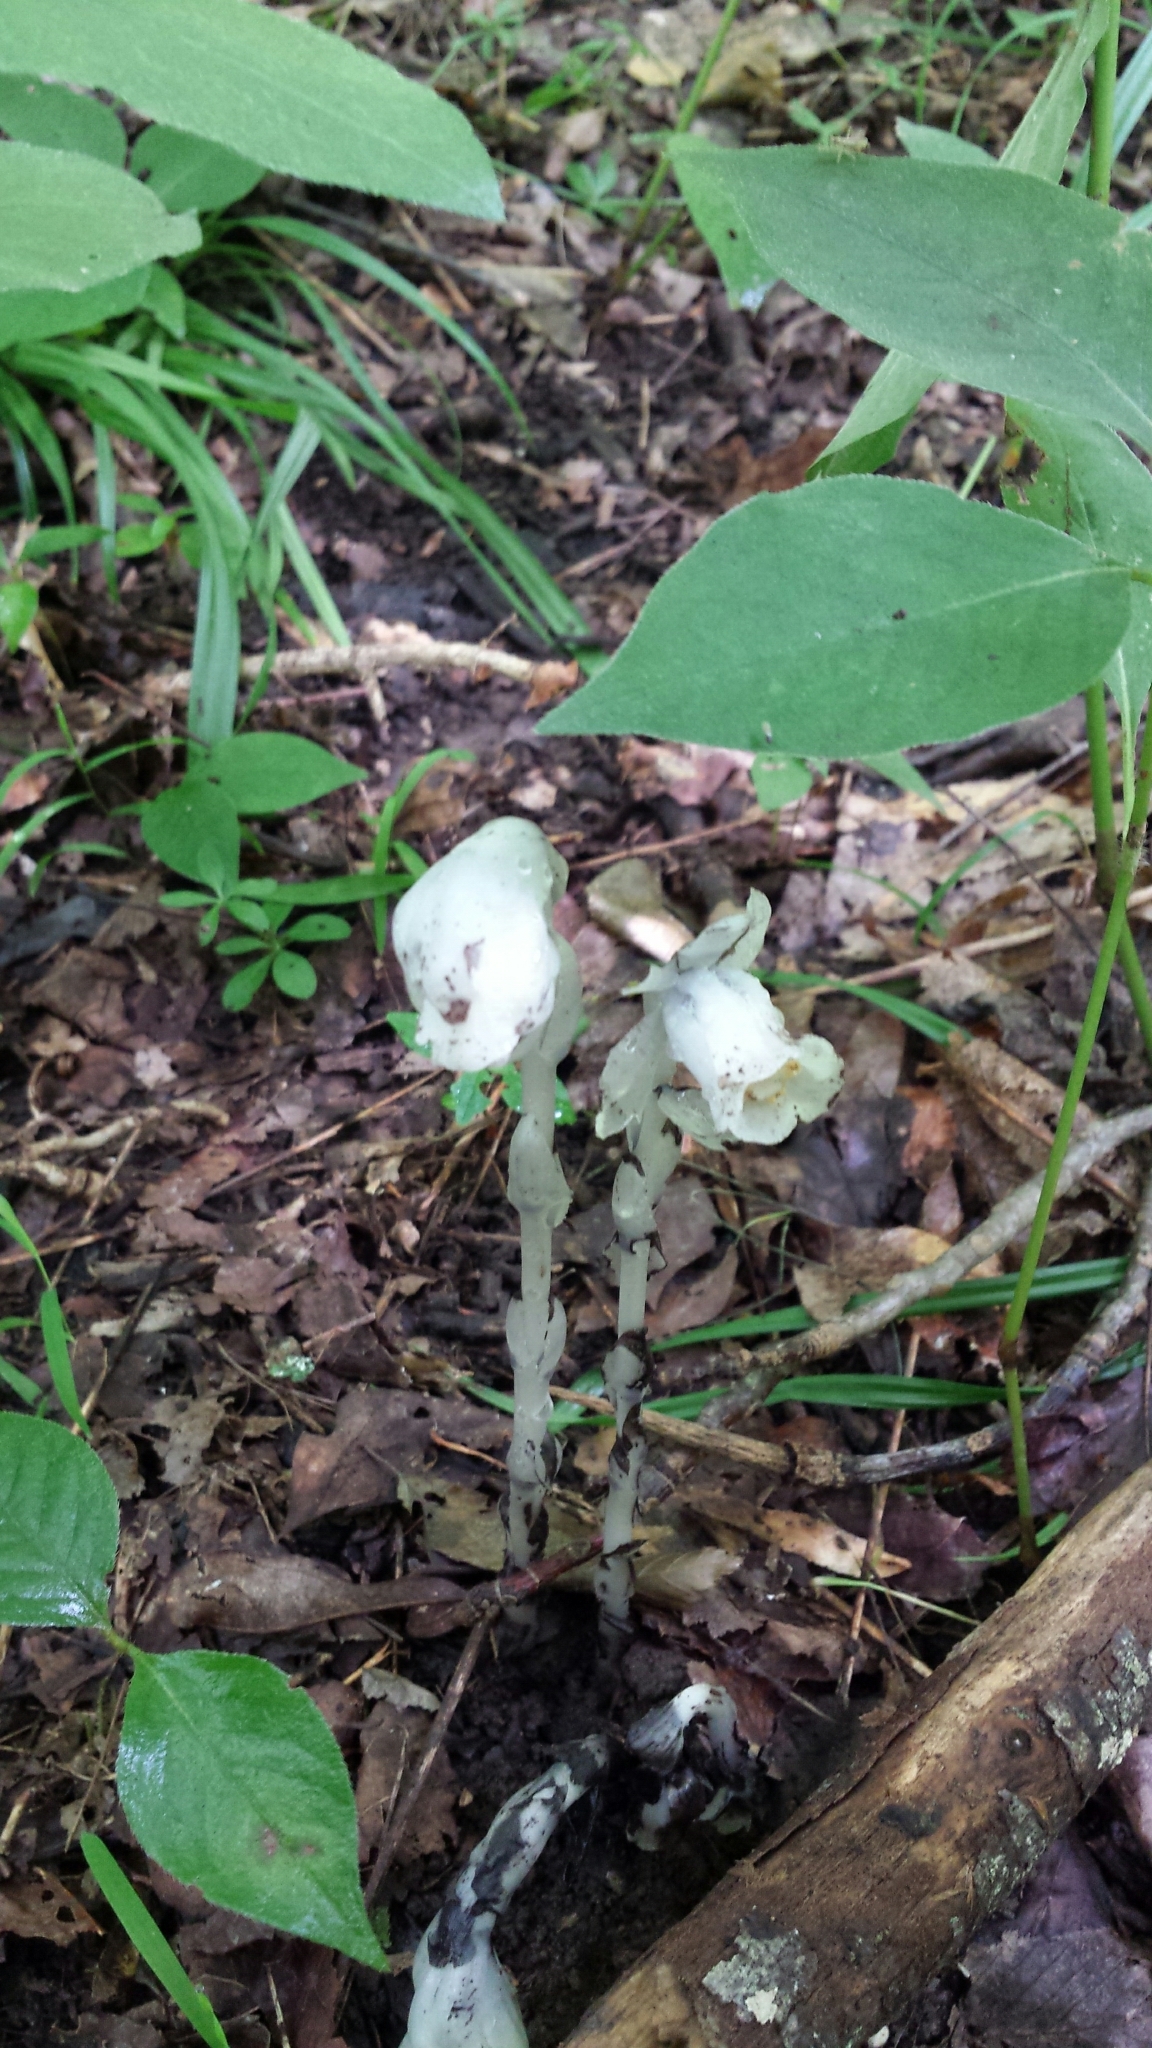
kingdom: Plantae
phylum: Tracheophyta
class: Magnoliopsida
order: Ericales
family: Ericaceae
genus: Monotropa
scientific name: Monotropa uniflora
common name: Convulsion root
